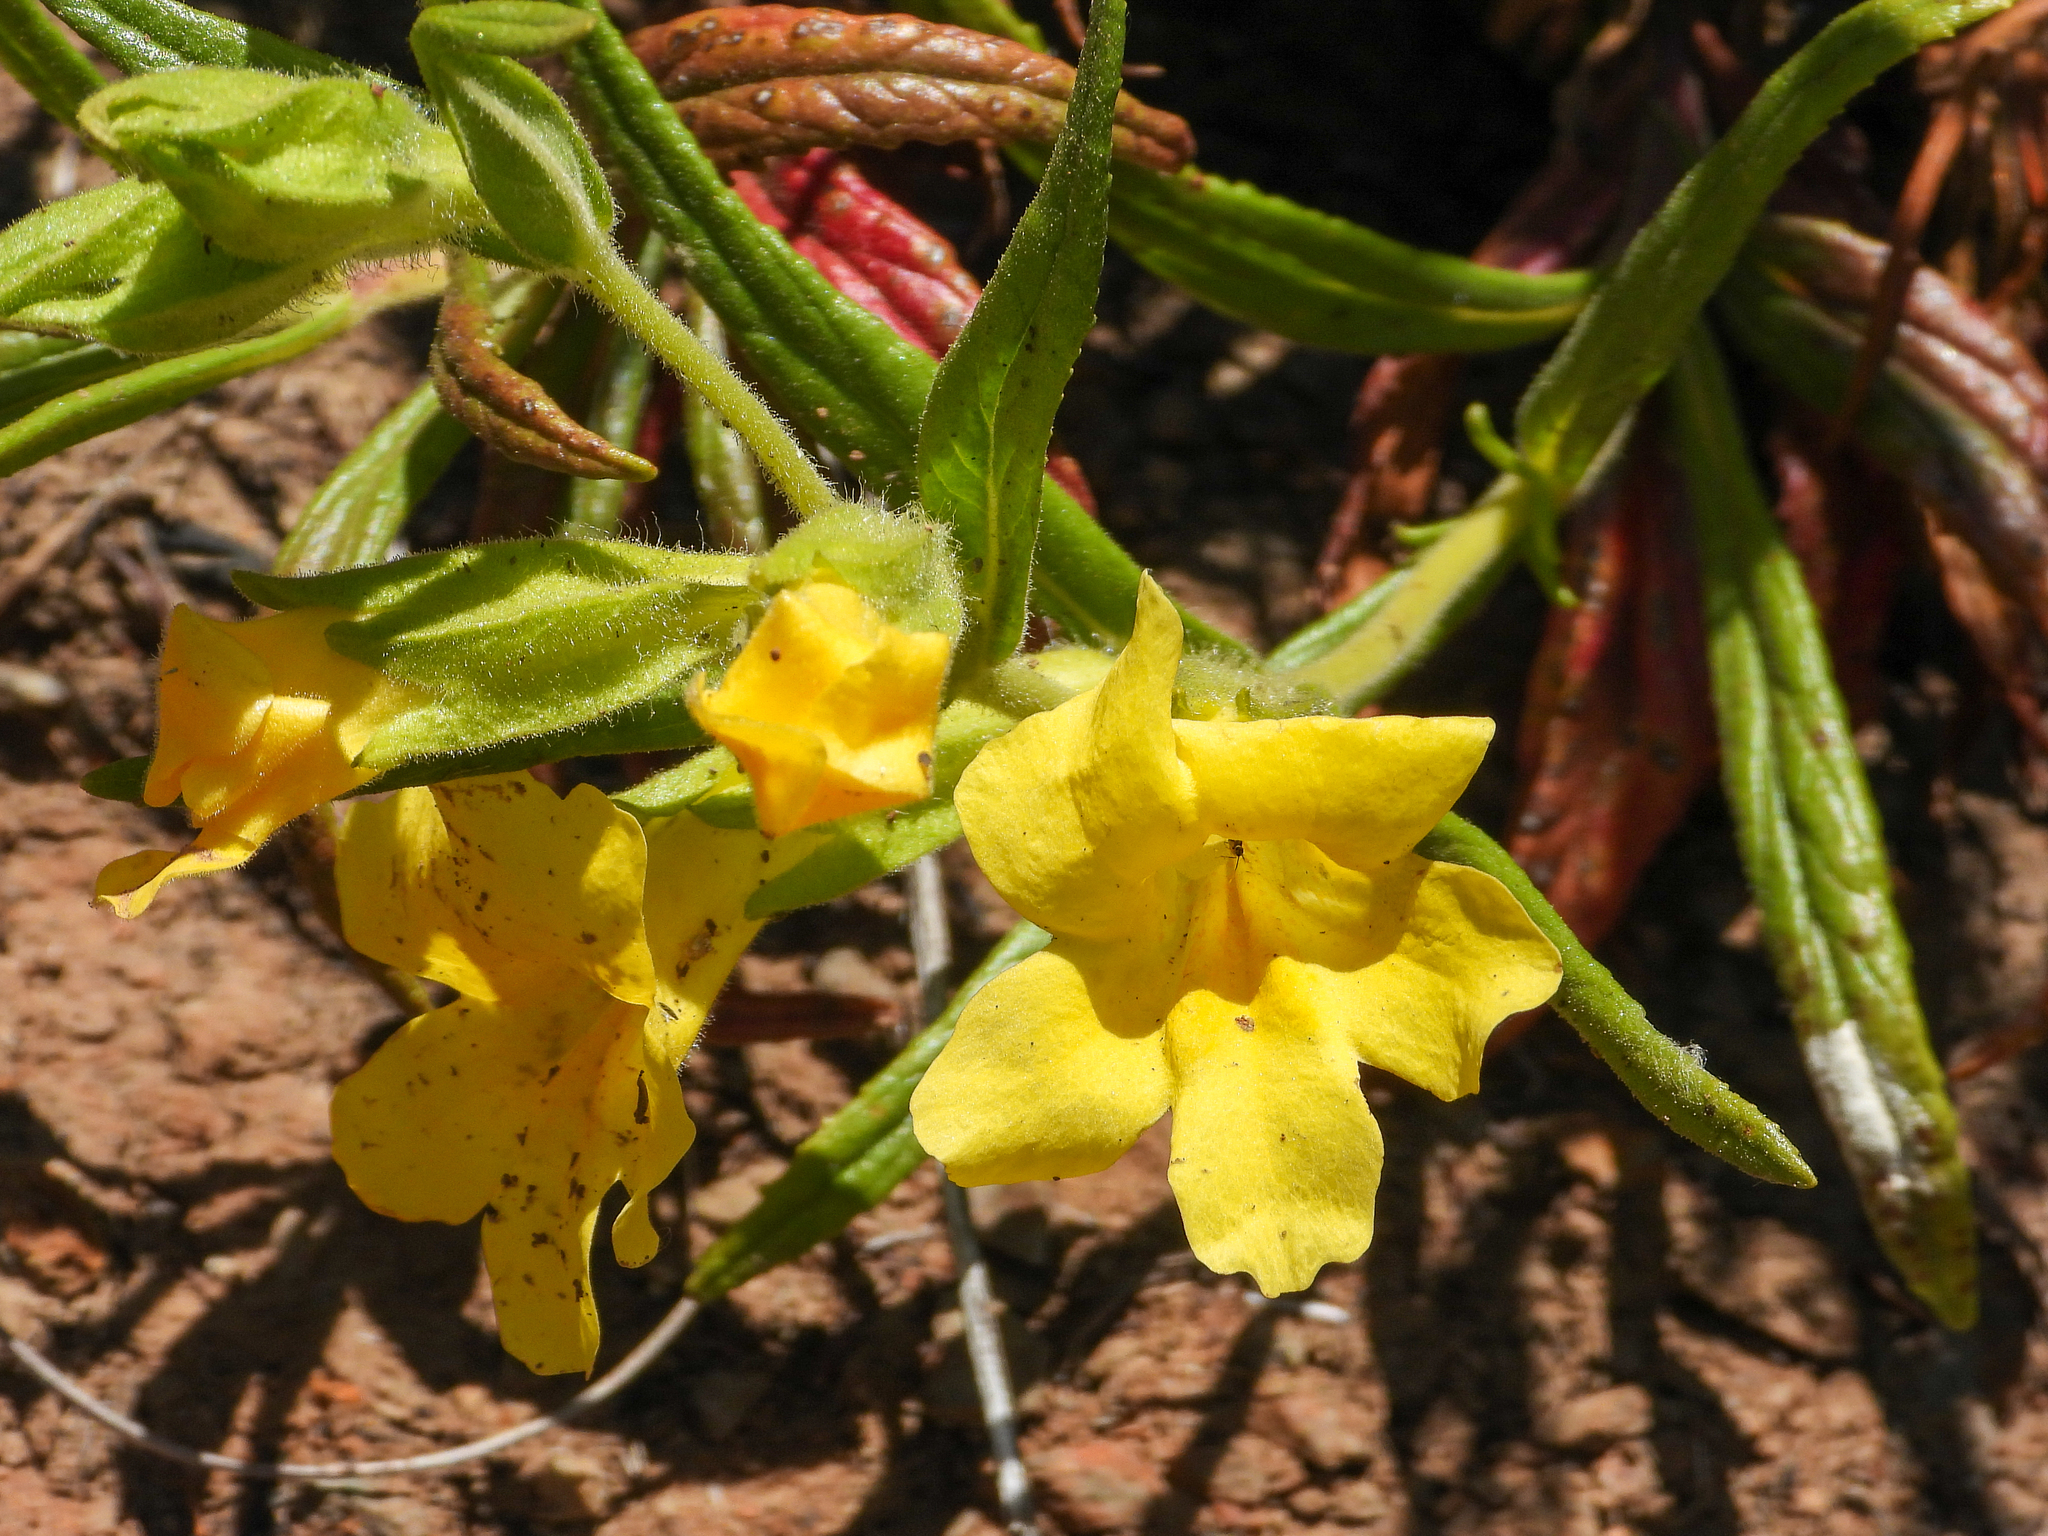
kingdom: Plantae
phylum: Tracheophyta
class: Magnoliopsida
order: Lamiales
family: Phrymaceae
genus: Diplacus
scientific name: Diplacus brevipes
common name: Wide-throat yellow monkey-flower
